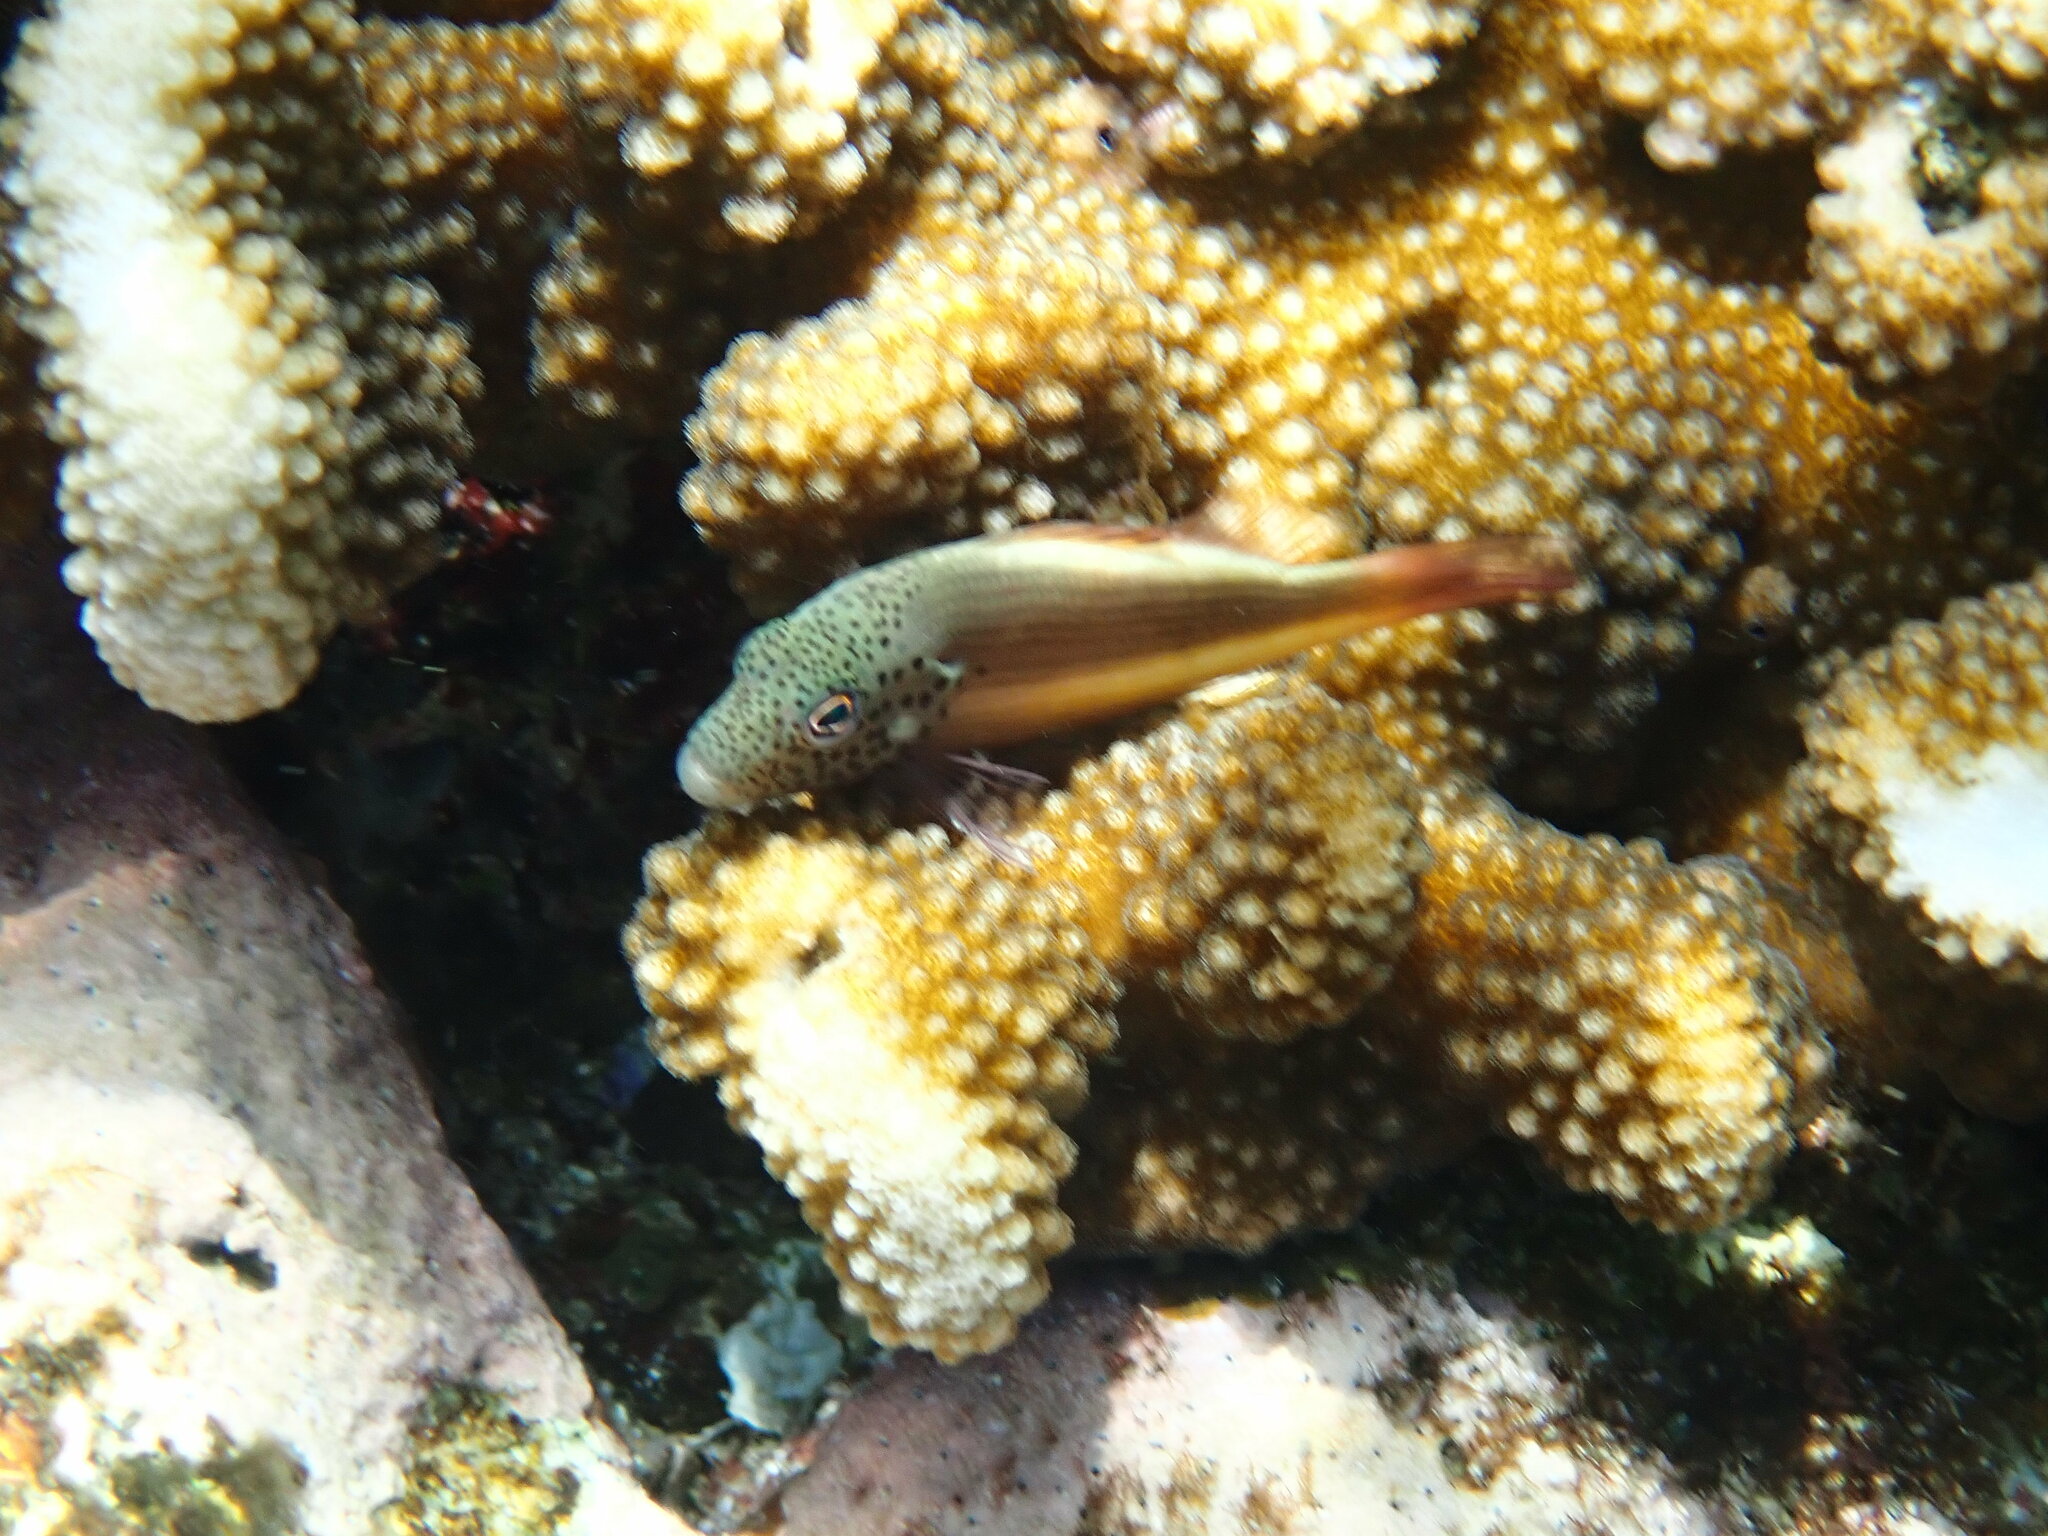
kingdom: Animalia
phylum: Chordata
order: Perciformes
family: Cirrhitidae
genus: Paracirrhites
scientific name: Paracirrhites forsteri
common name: Freckled hawkfish
